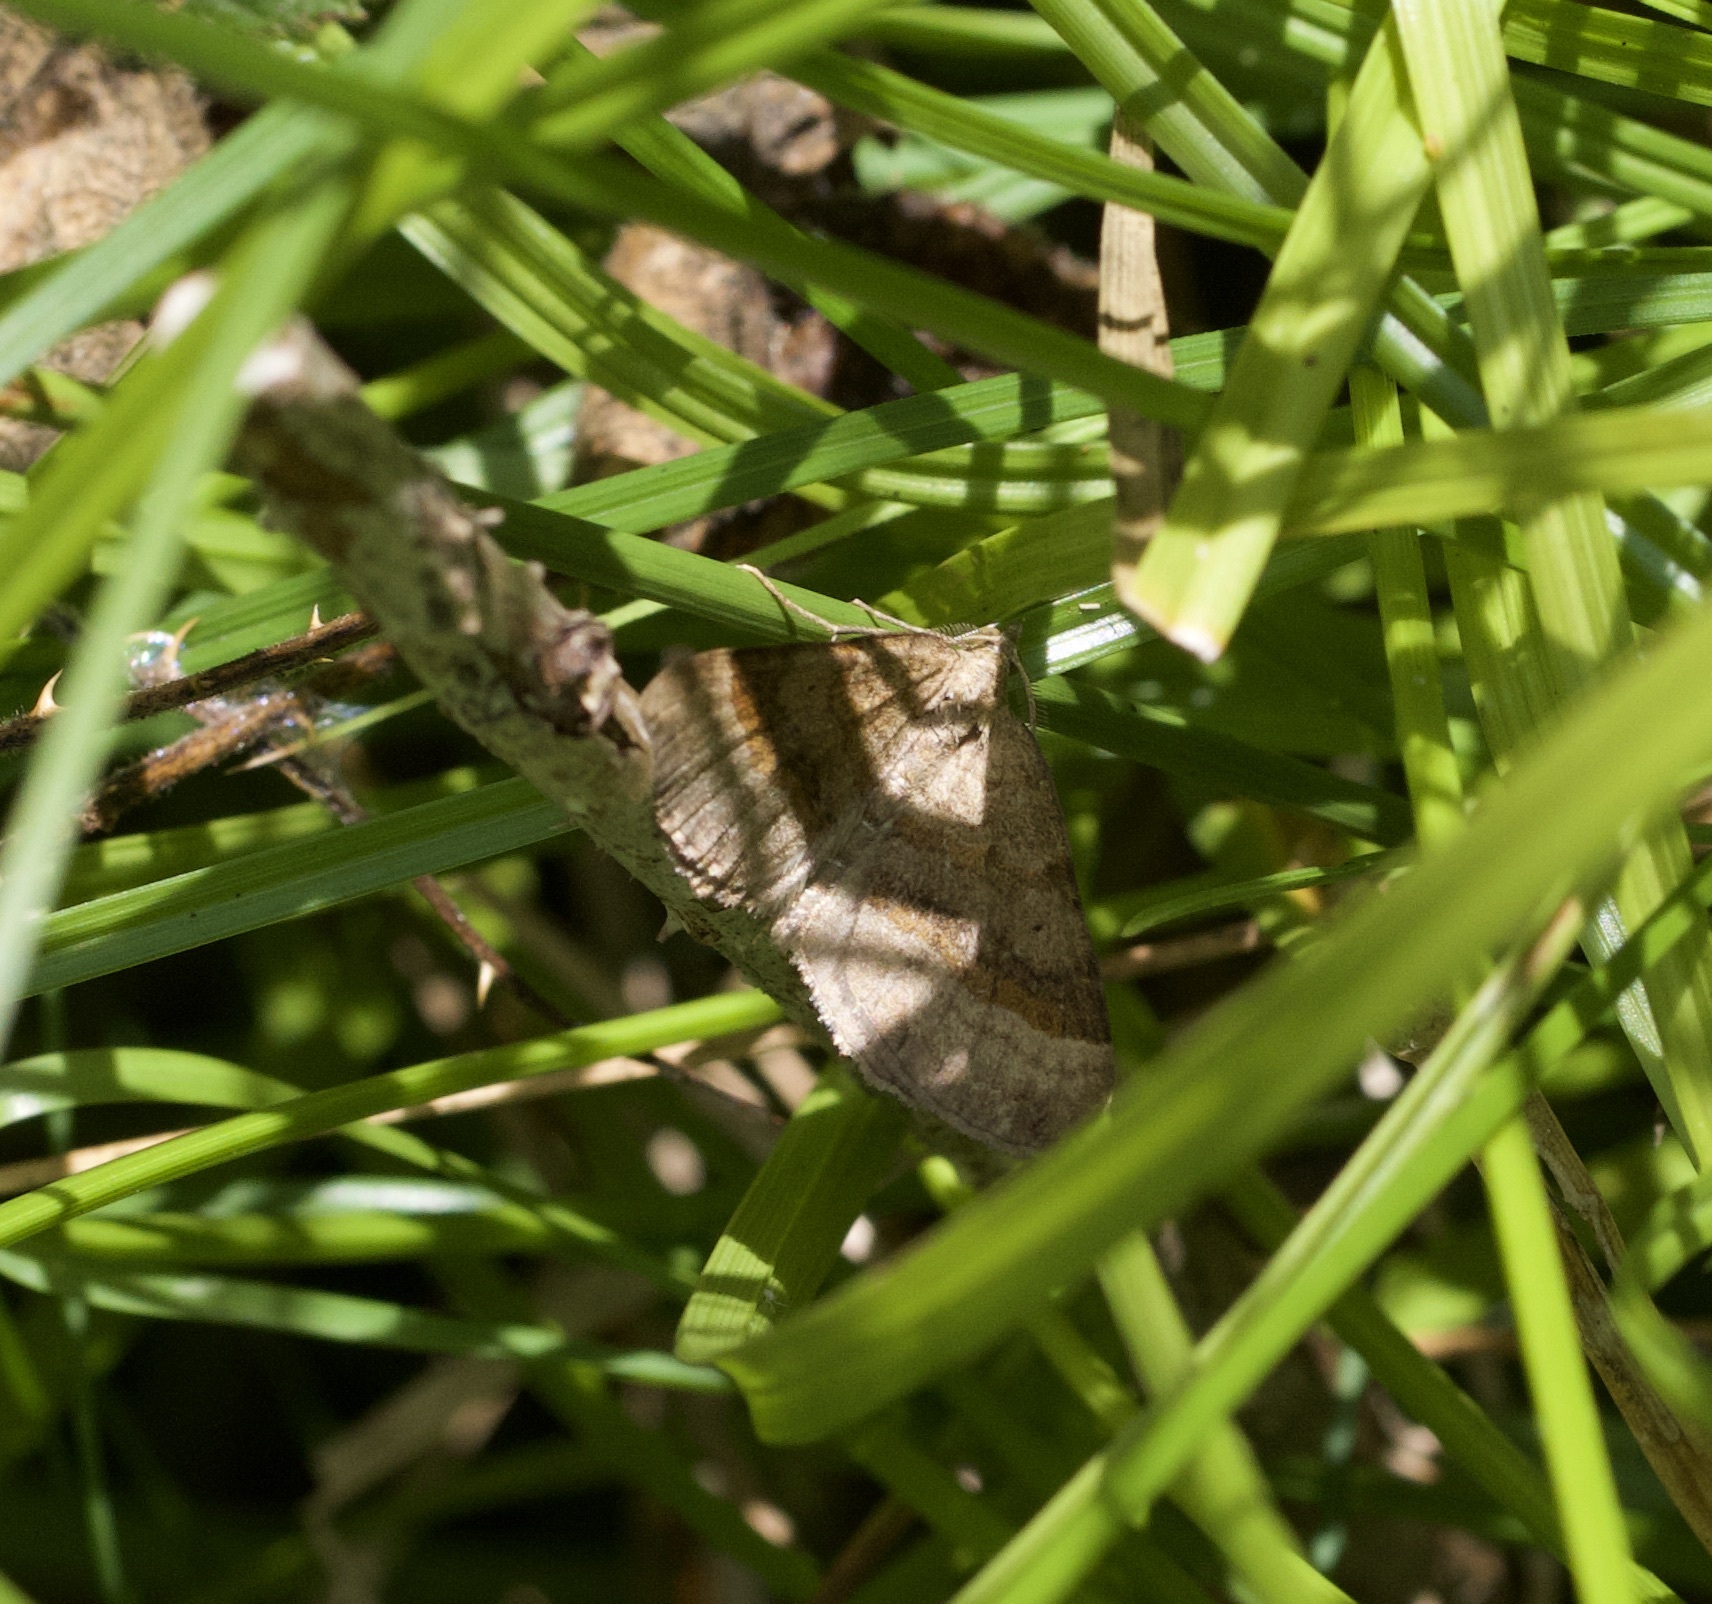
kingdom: Animalia
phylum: Arthropoda
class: Insecta
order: Lepidoptera
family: Geometridae
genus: Scotopteryx
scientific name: Scotopteryx chenopodiata
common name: Shaded broad-bar
